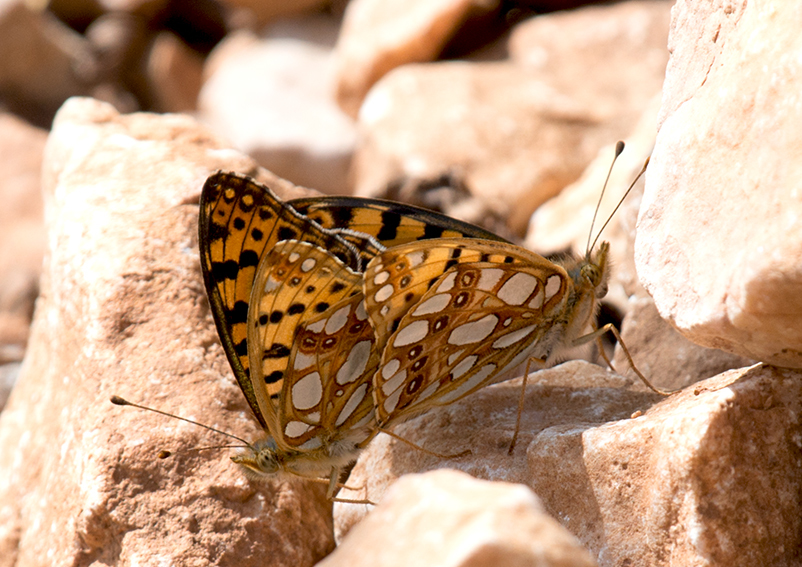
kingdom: Animalia
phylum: Arthropoda
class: Insecta
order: Lepidoptera
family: Nymphalidae
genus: Issoria
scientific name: Issoria lathonia
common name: Queen of spain fritillary
